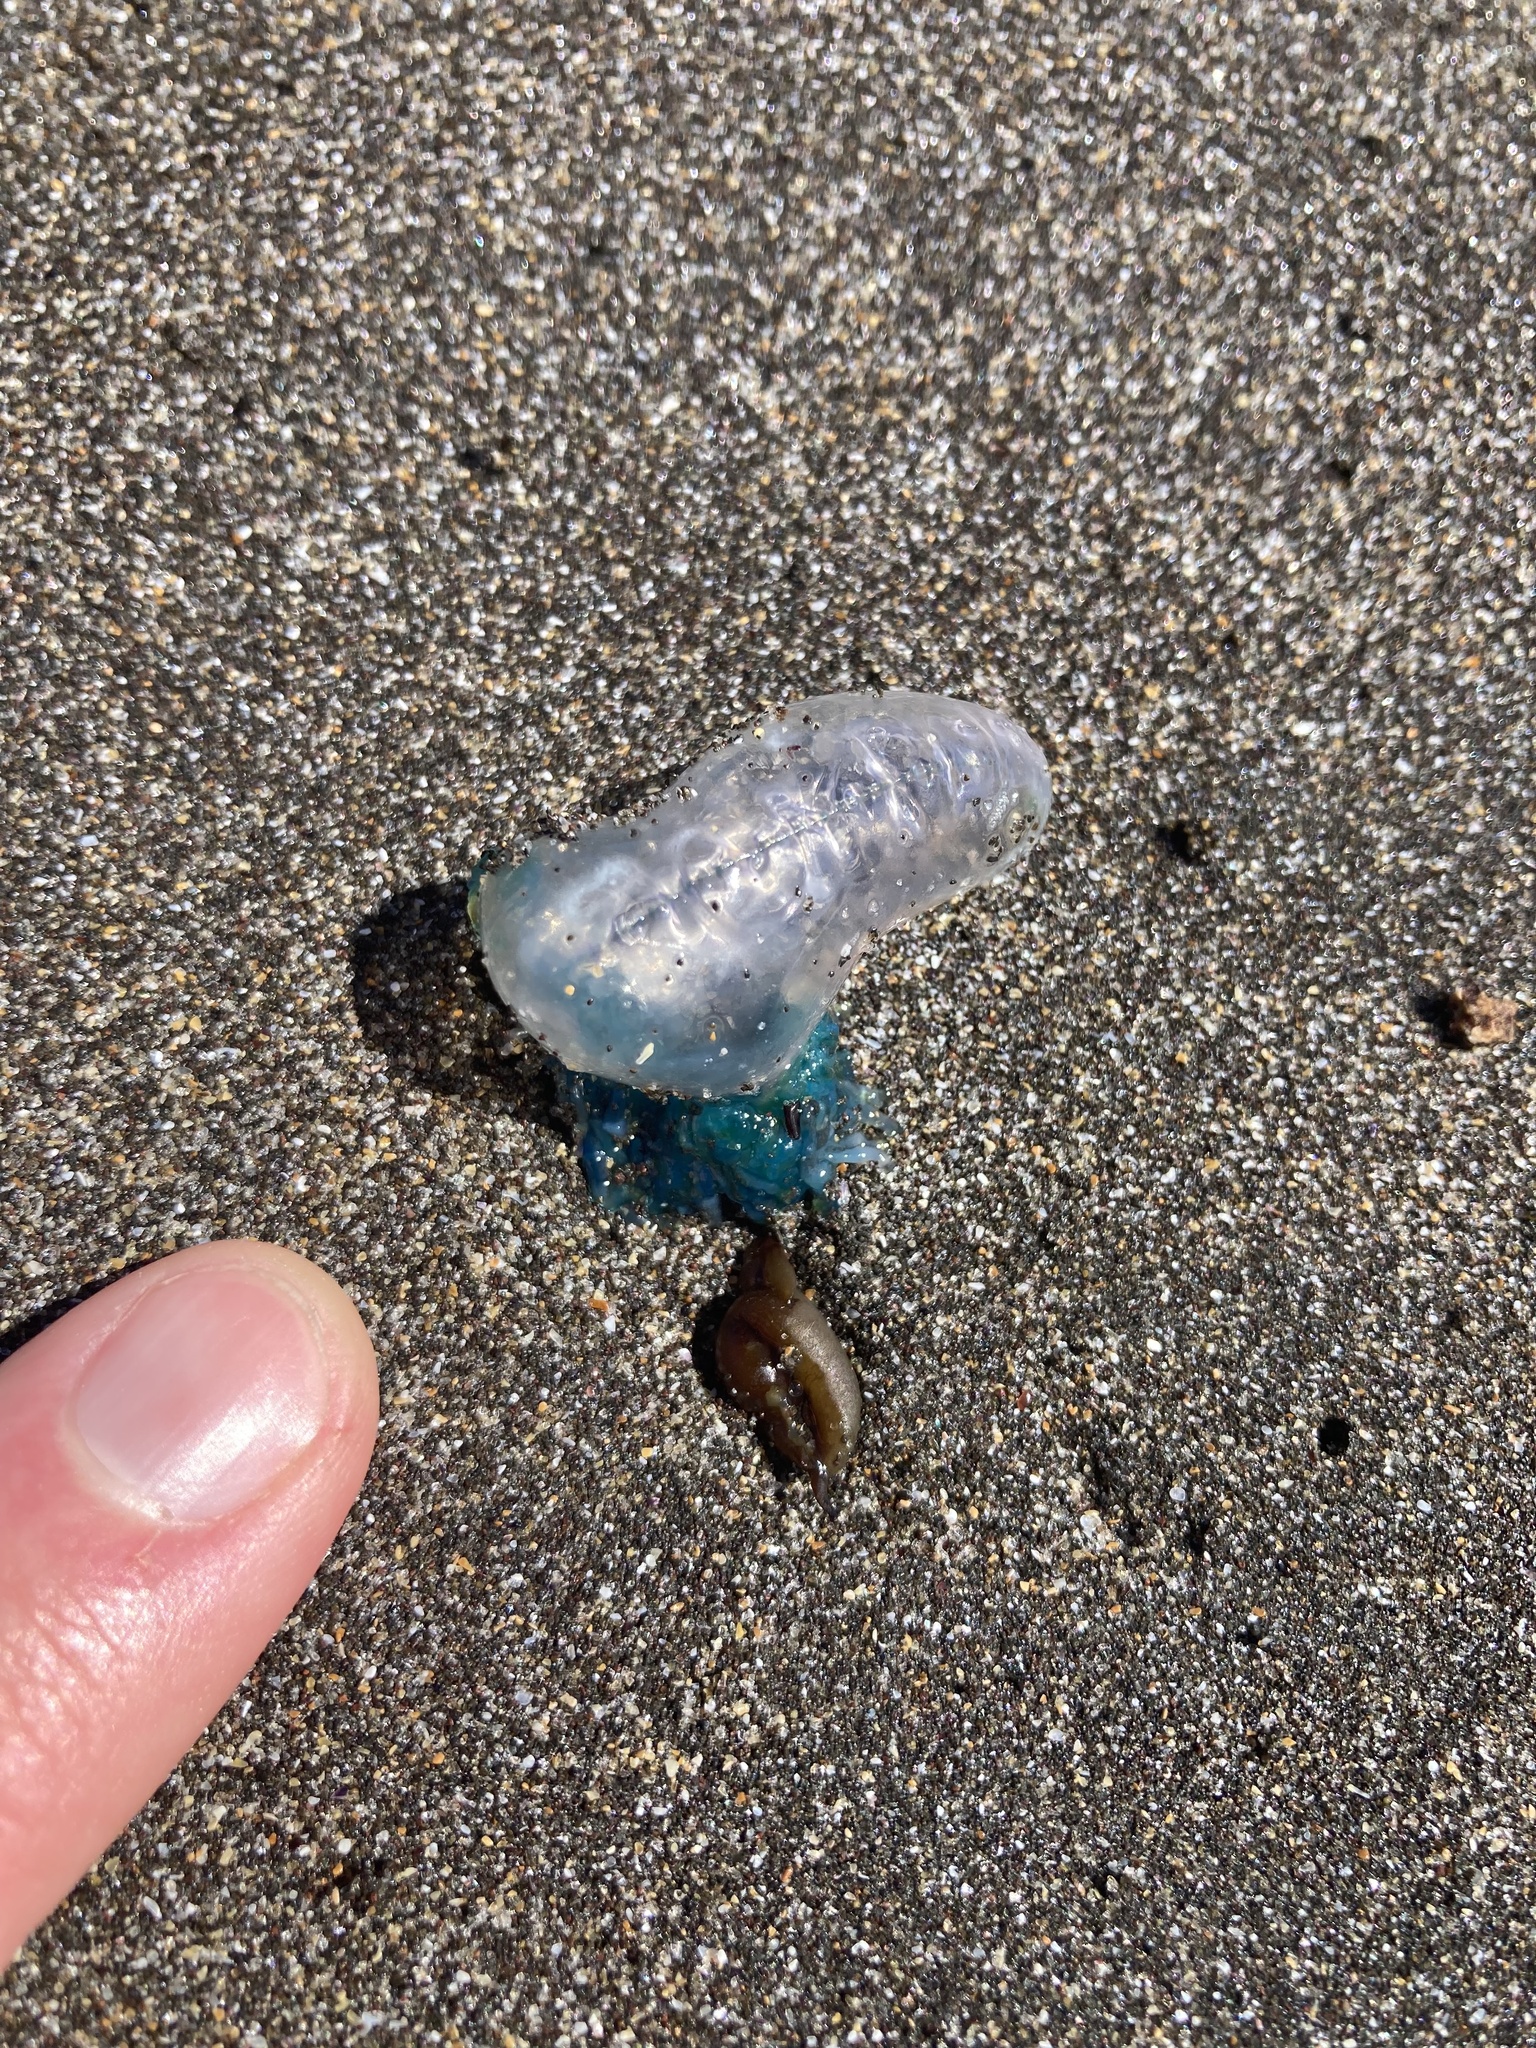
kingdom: Animalia
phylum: Cnidaria
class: Hydrozoa
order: Siphonophorae
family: Physaliidae
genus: Physalia
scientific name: Physalia physalis
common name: Portuguese man-of-war
